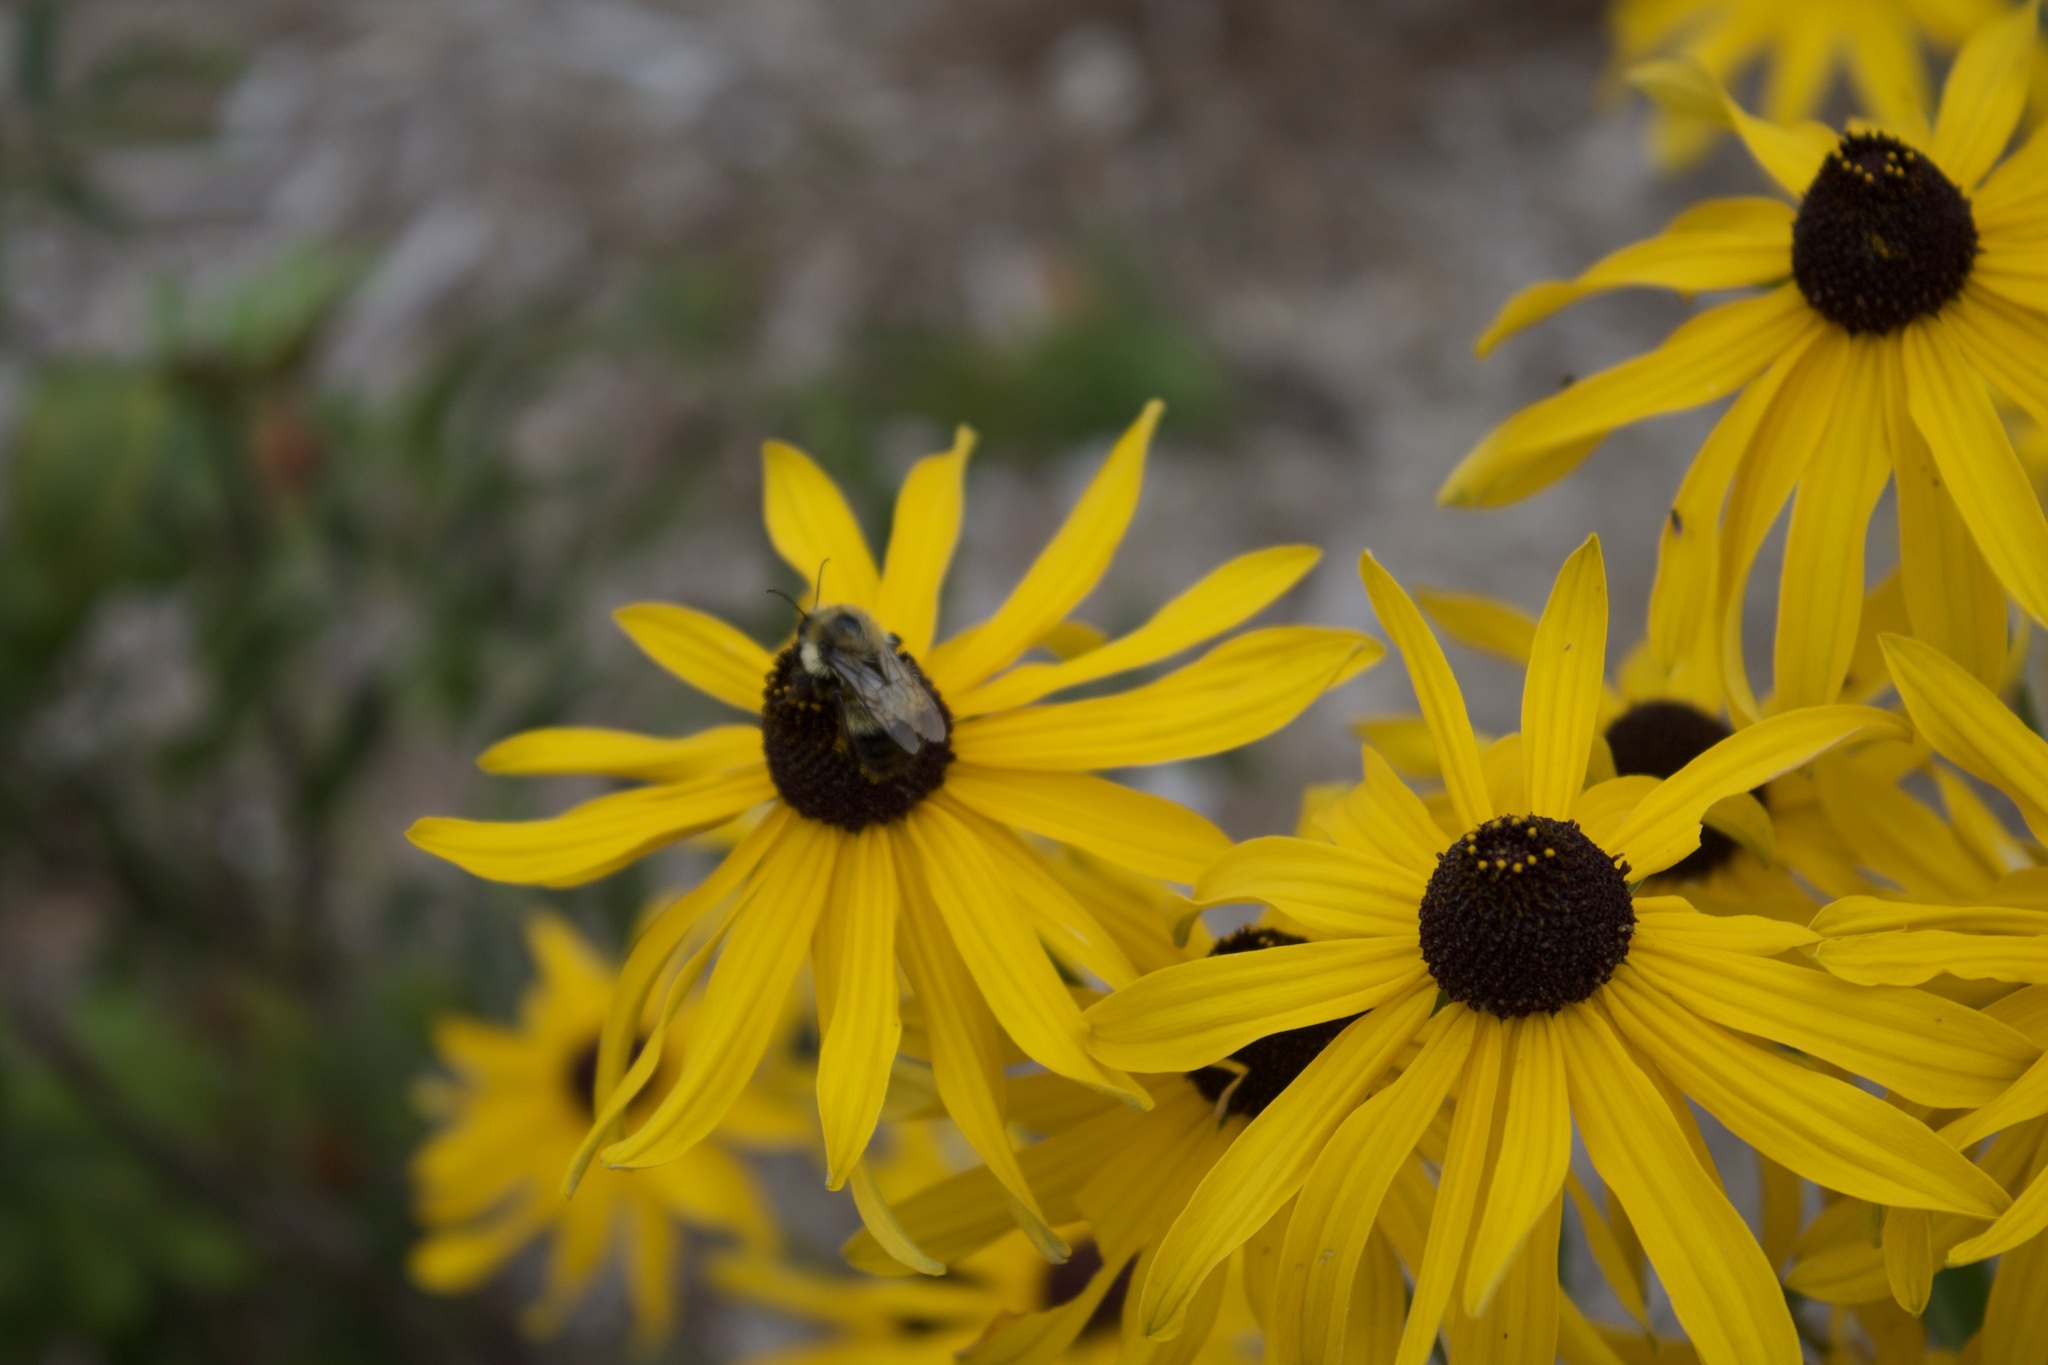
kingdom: Animalia
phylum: Arthropoda
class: Insecta
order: Hymenoptera
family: Apidae
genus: Bombus
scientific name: Bombus rufocinctus
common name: Red-belted bumble bee
